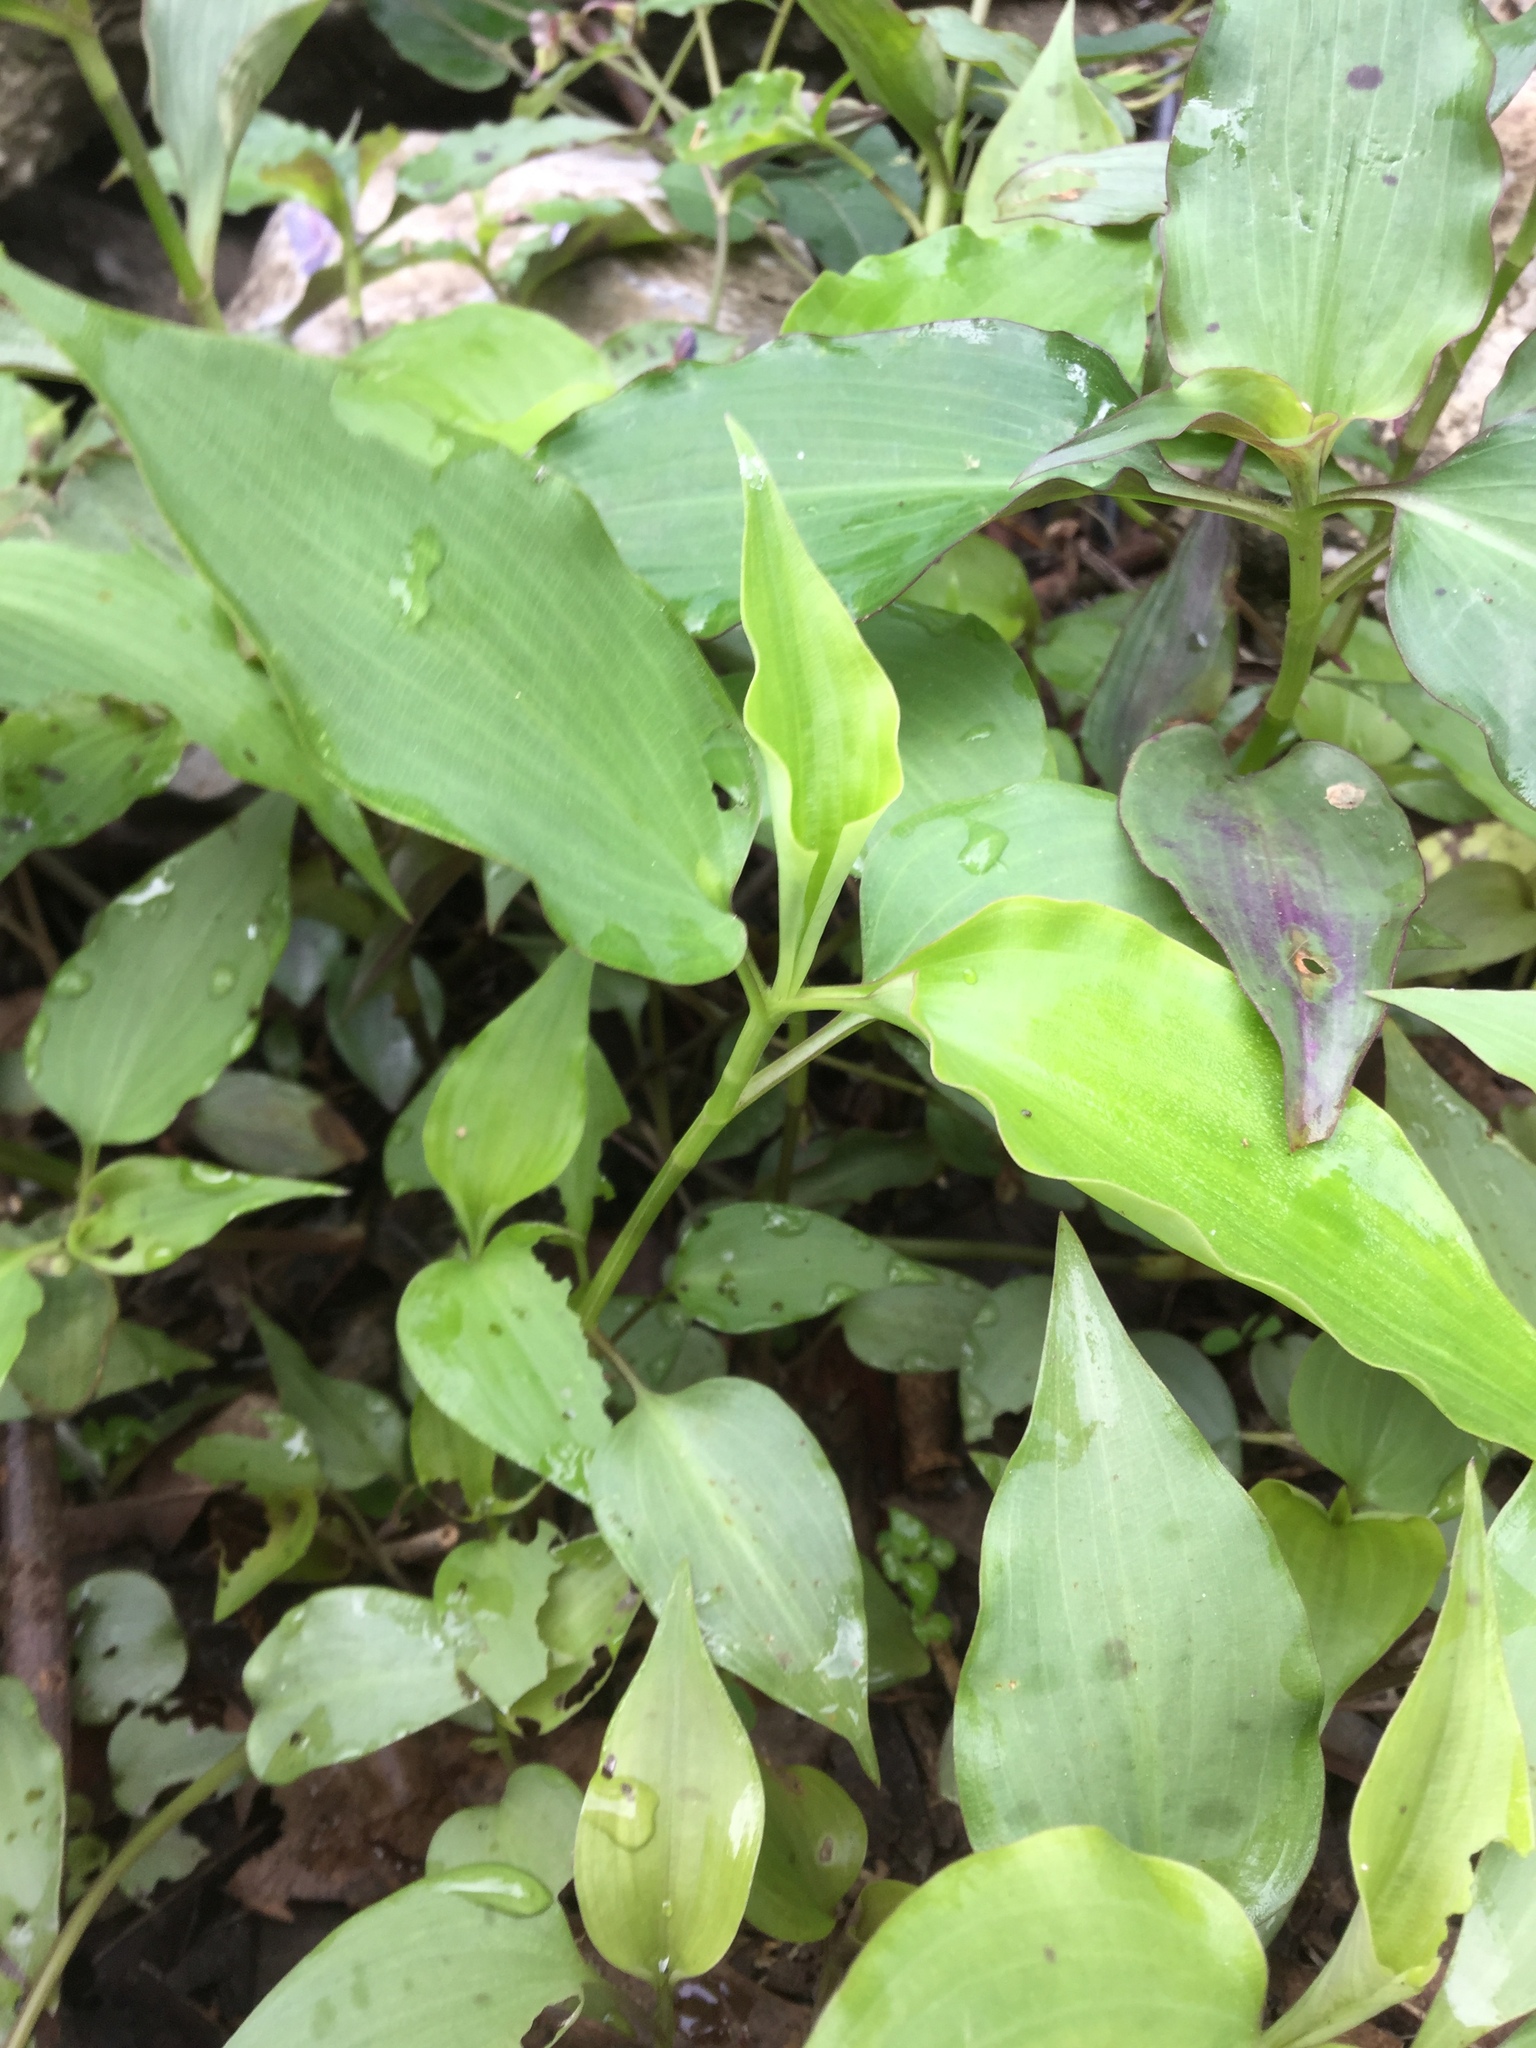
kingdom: Plantae
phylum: Tracheophyta
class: Liliopsida
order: Commelinales
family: Commelinaceae
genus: Tinantia
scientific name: Tinantia pringlei
